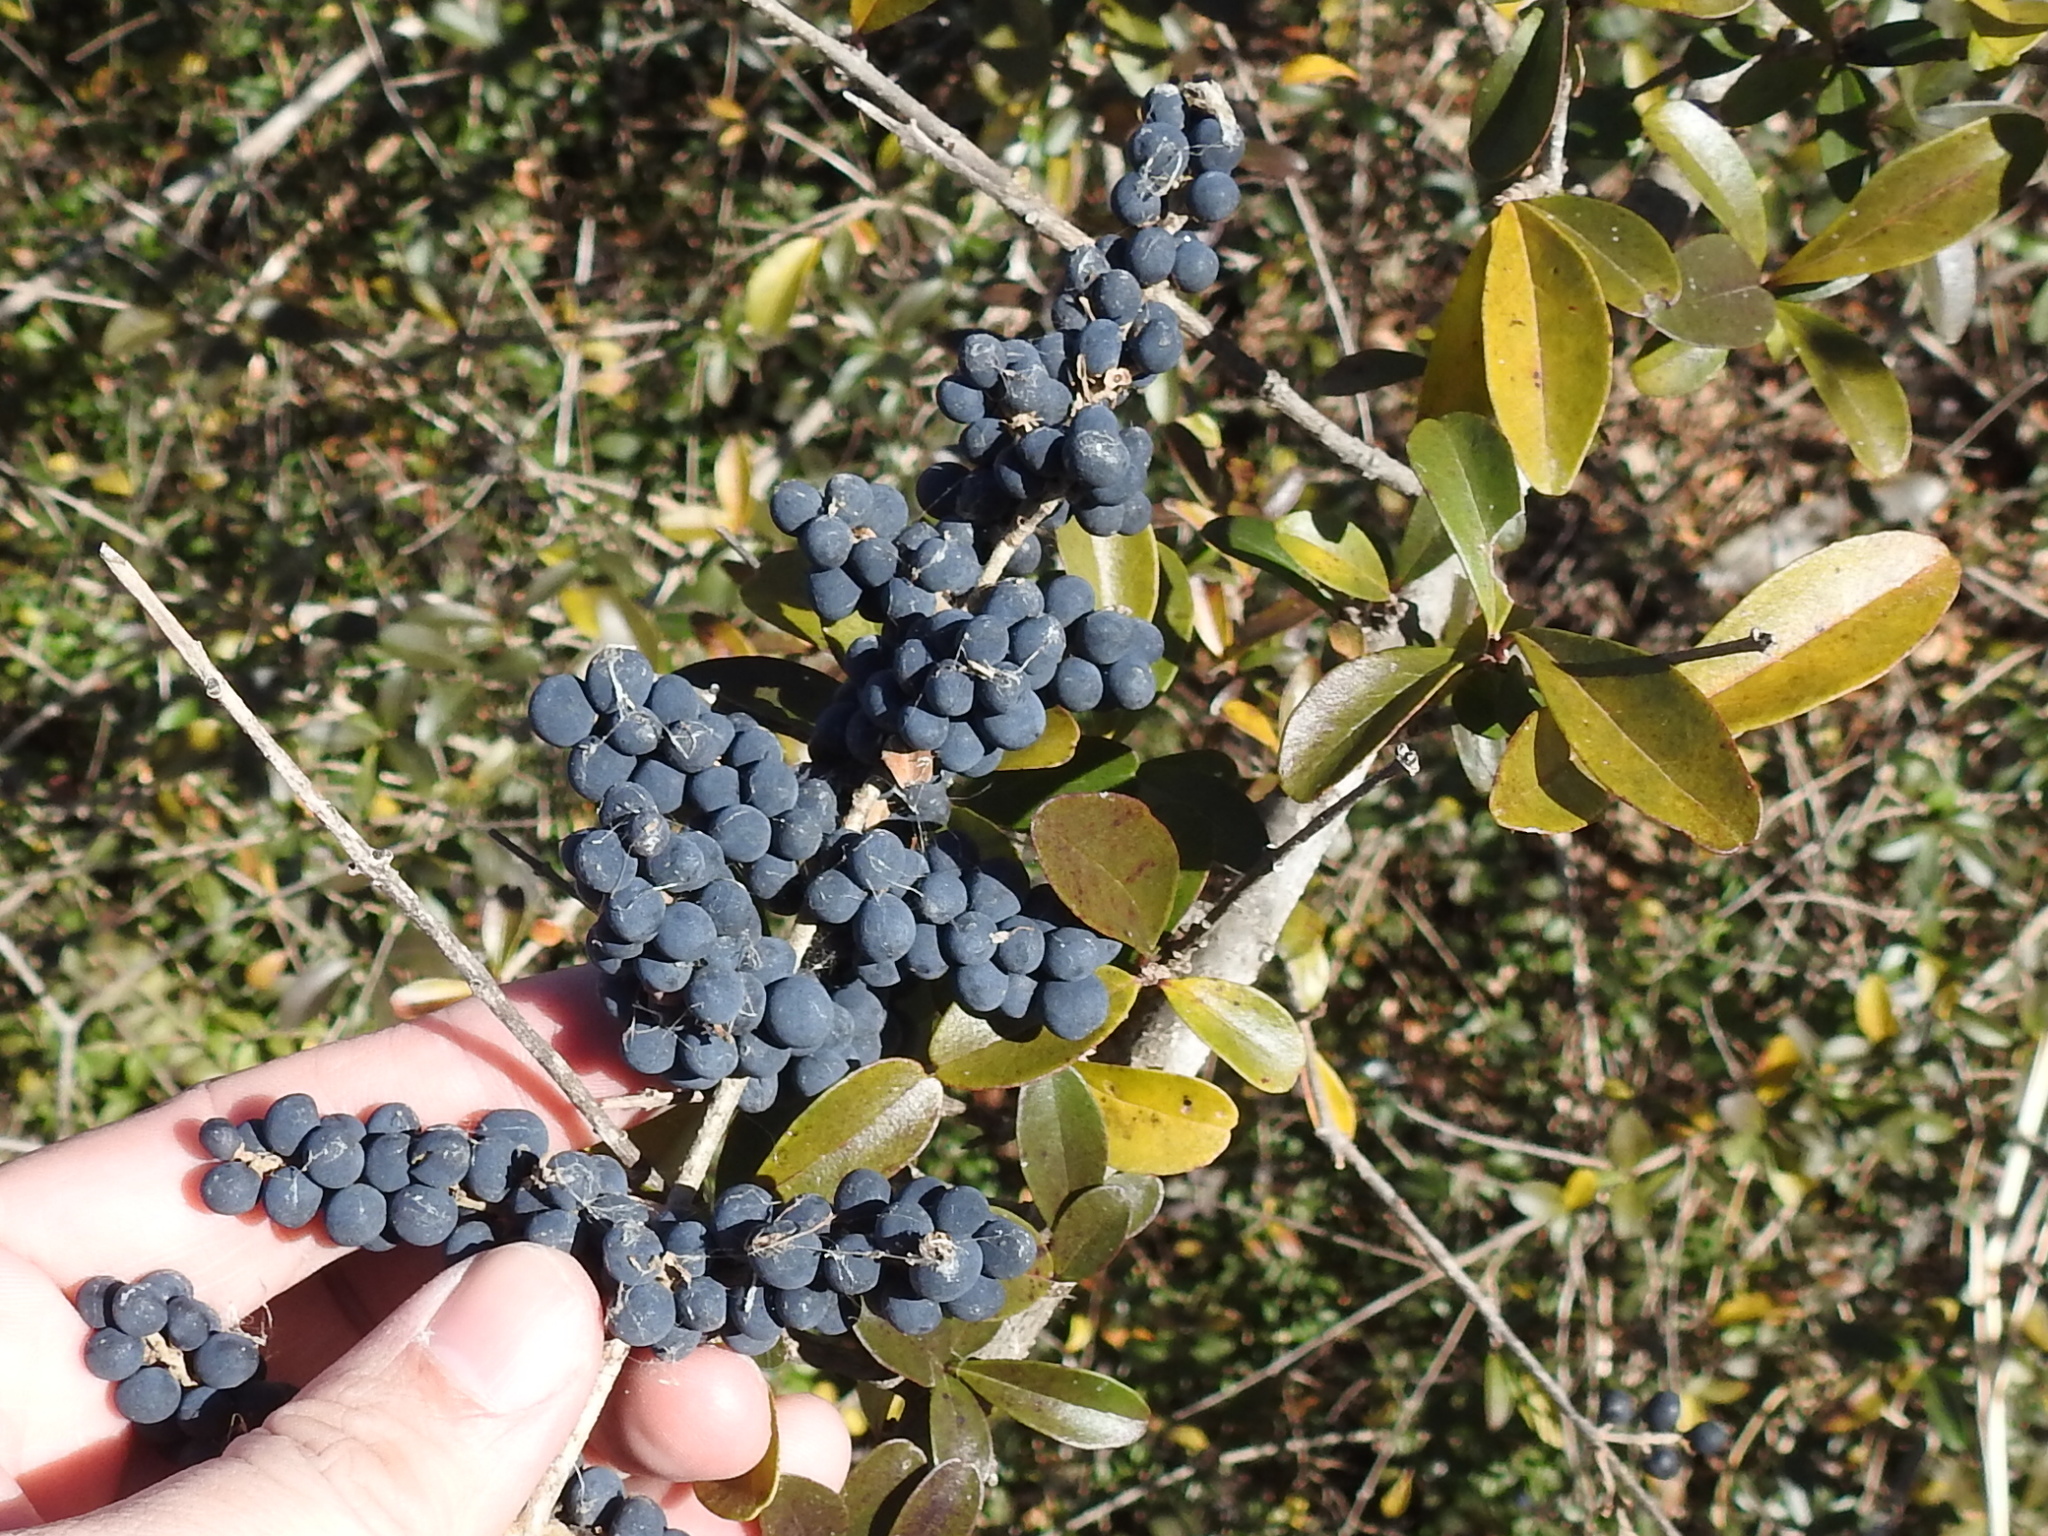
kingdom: Plantae
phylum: Tracheophyta
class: Magnoliopsida
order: Lamiales
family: Oleaceae
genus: Ligustrum
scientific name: Ligustrum quihoui
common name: Waxyleaf privet
